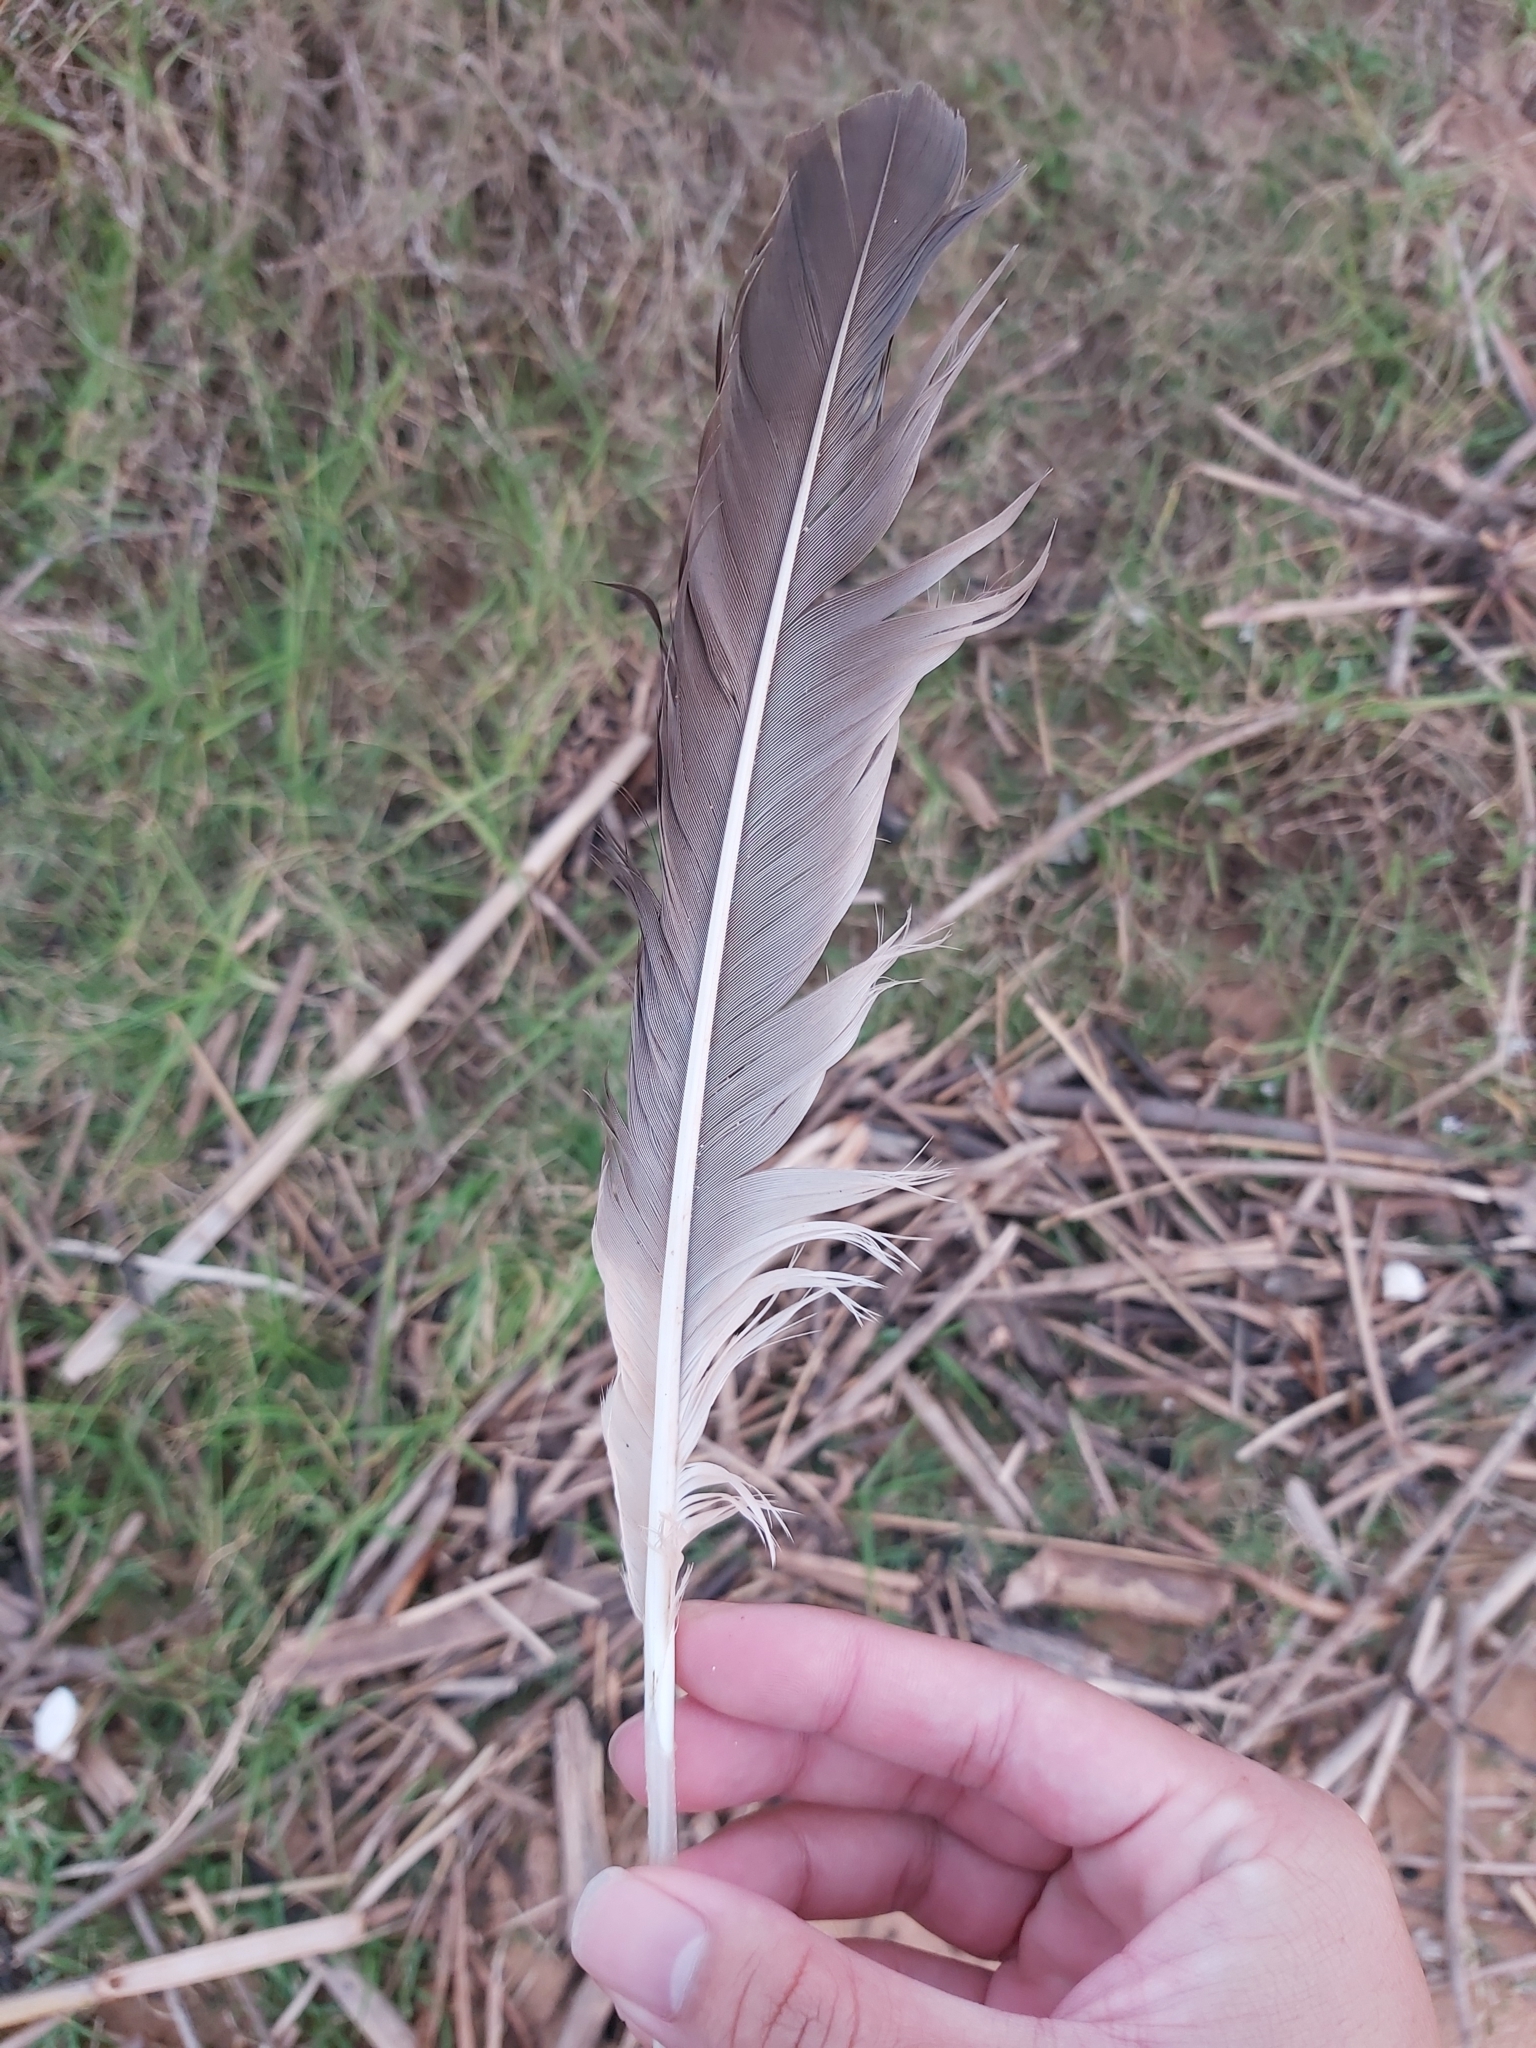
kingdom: Animalia
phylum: Chordata
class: Aves
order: Pelecaniformes
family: Pelecanidae
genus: Pelecanus
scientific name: Pelecanus conspicillatus
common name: Australian pelican
